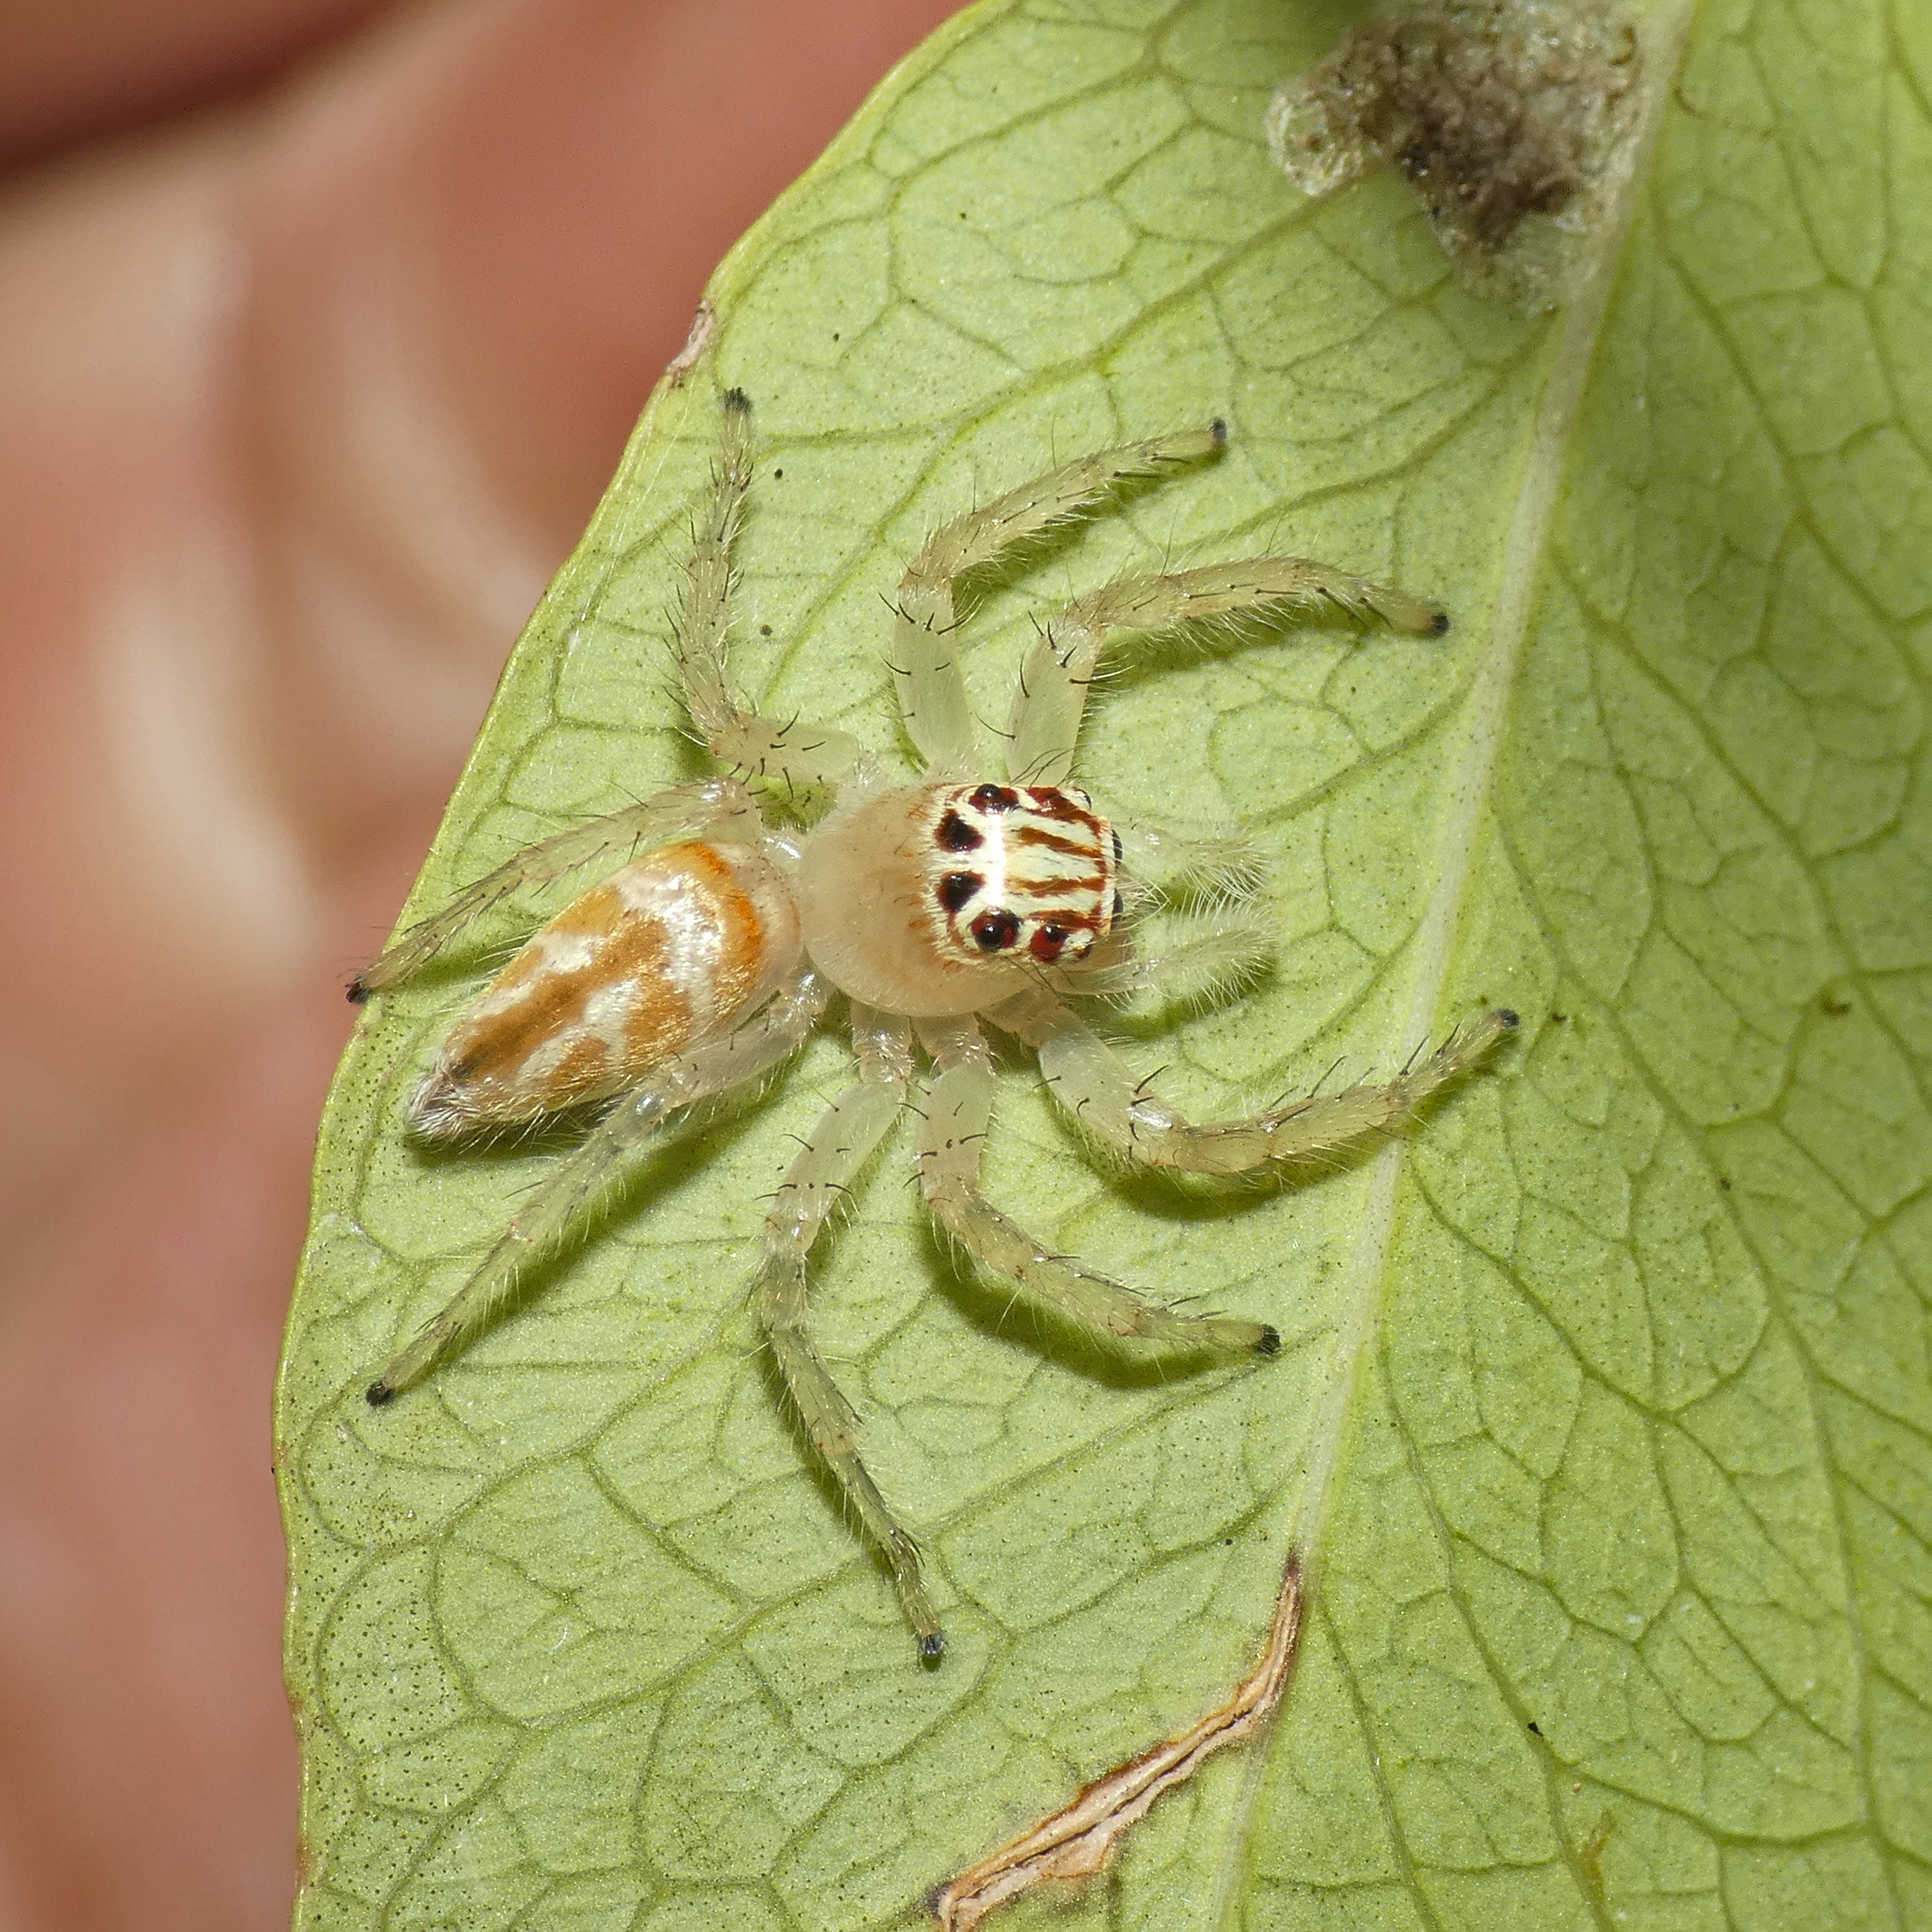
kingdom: Animalia
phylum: Arthropoda
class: Arachnida
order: Araneae
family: Salticidae
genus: Brancus
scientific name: Brancus mustelus
